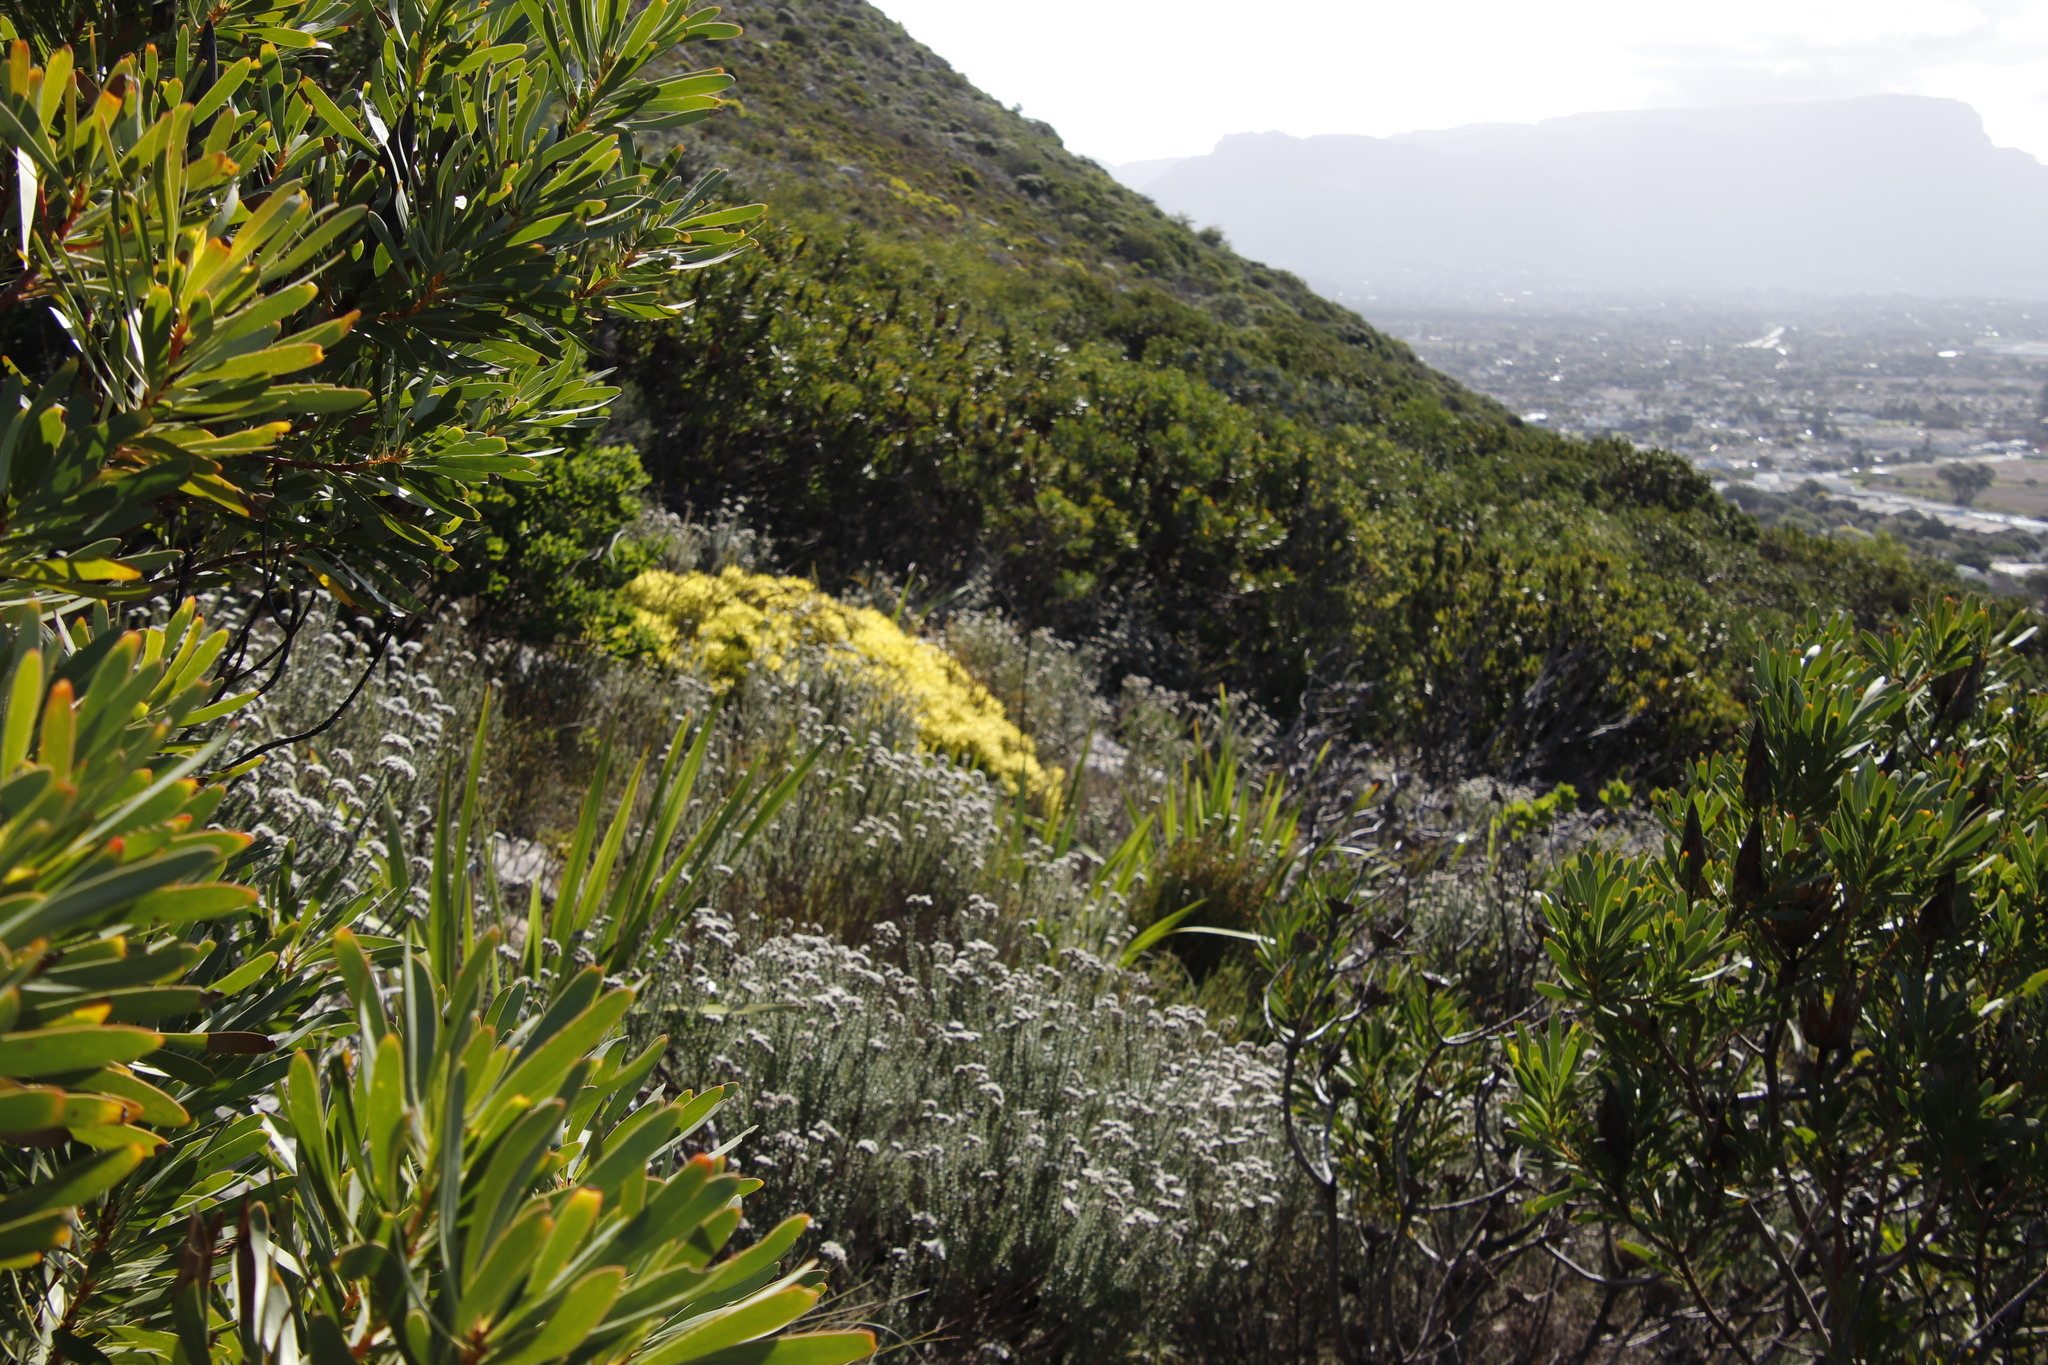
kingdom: Plantae
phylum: Tracheophyta
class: Magnoliopsida
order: Proteales
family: Proteaceae
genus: Leucadendron
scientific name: Leucadendron salignum
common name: Common sunshine conebush
